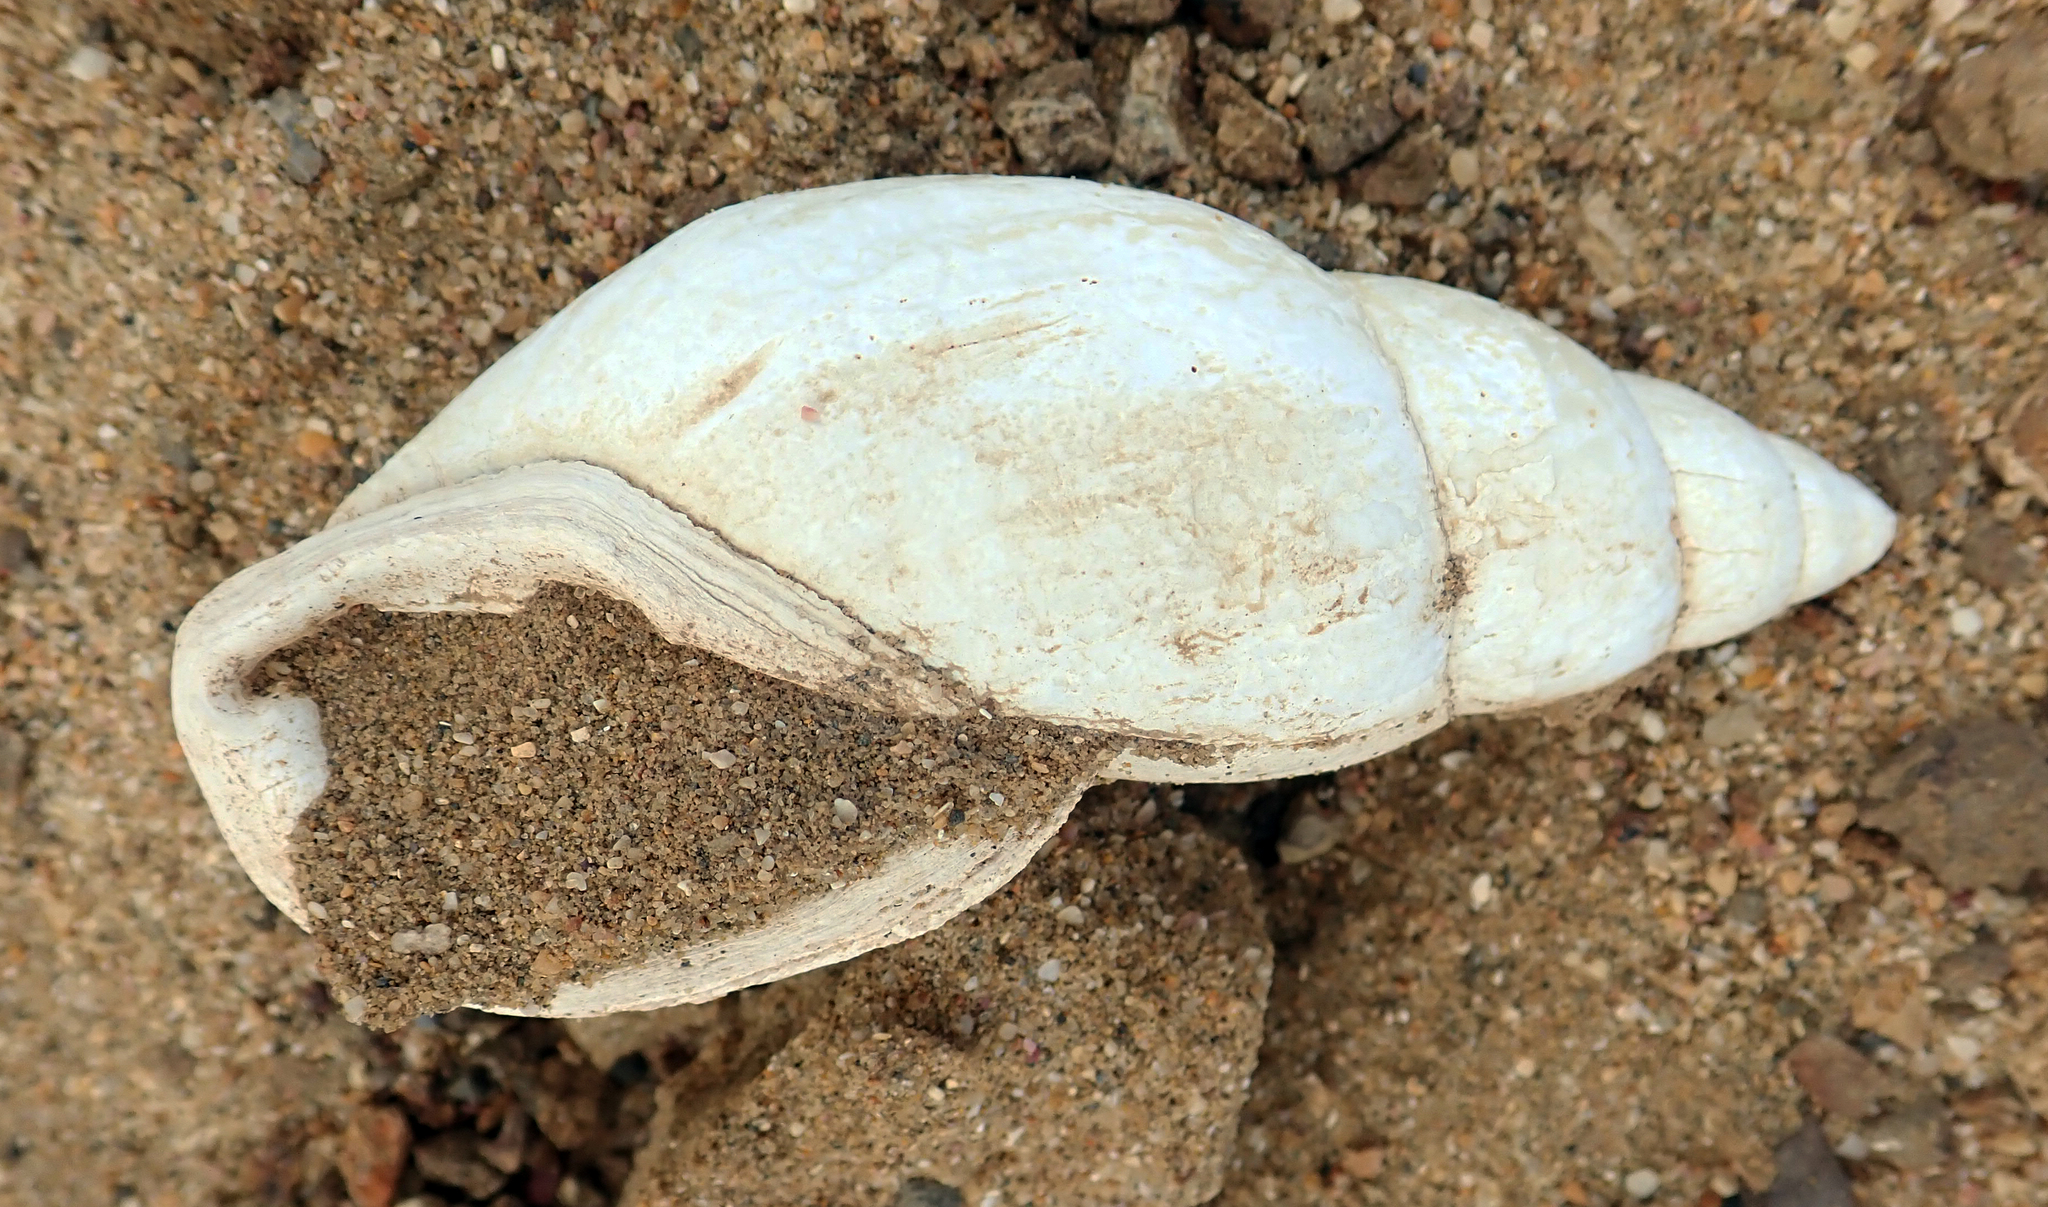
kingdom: Animalia
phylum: Mollusca
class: Gastropoda
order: Stylommatophora
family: Bothriembryontidae
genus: Maoristylus
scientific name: Maoristylus ambagiosus
